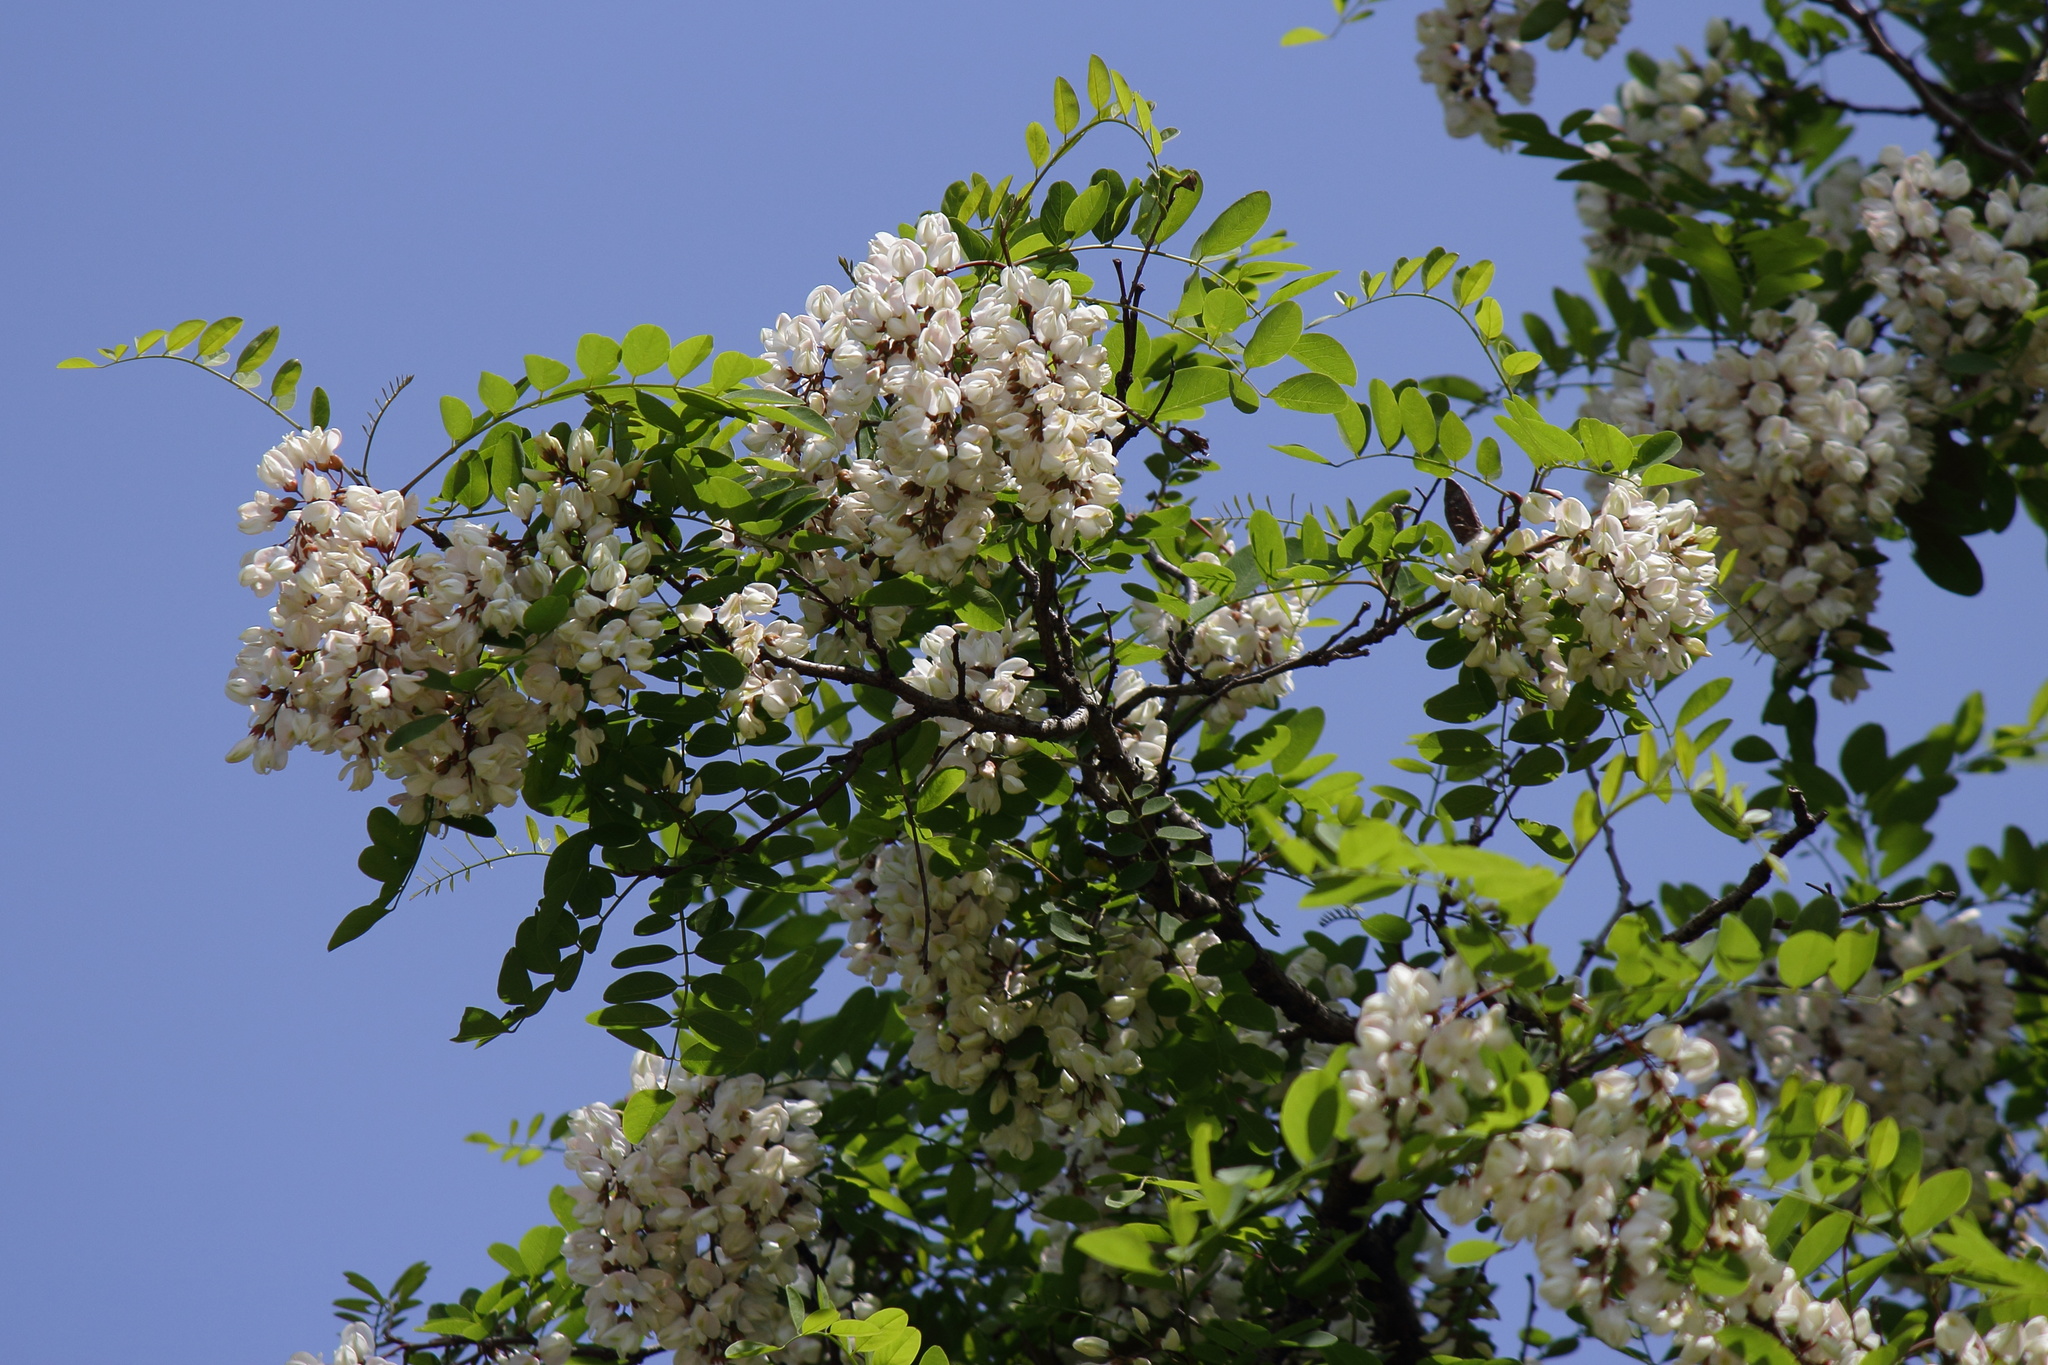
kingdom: Plantae
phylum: Tracheophyta
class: Magnoliopsida
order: Fabales
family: Fabaceae
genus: Robinia
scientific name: Robinia pseudoacacia
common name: Black locust
